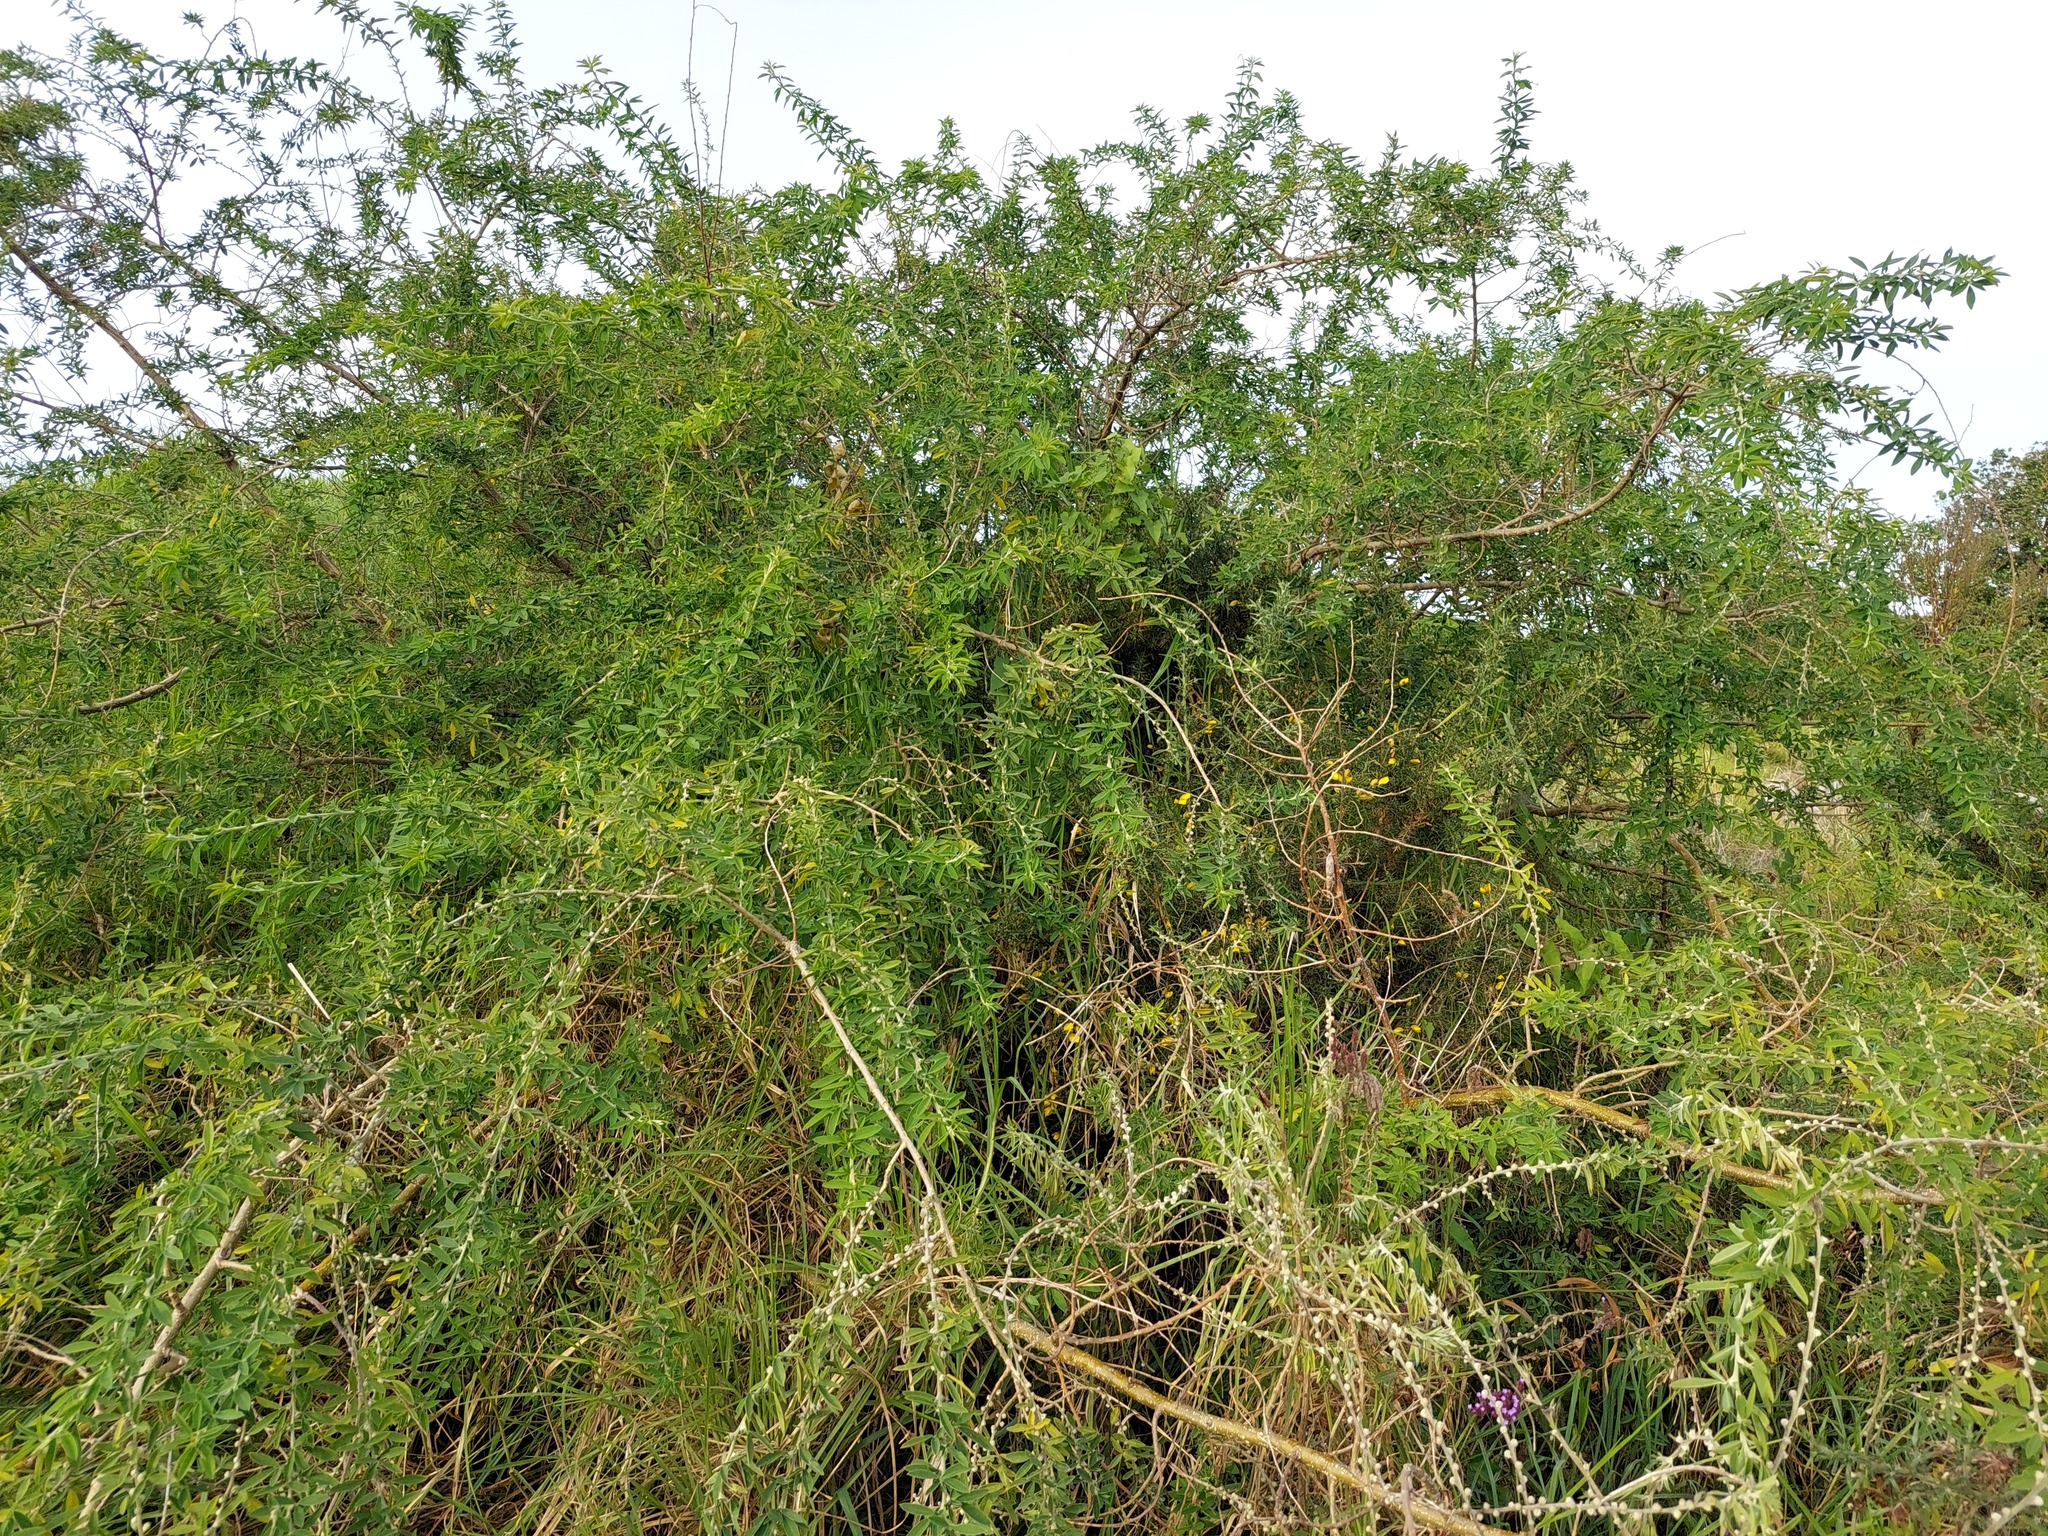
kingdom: Plantae
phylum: Tracheophyta
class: Magnoliopsida
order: Fabales
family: Fabaceae
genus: Chamaecytisus
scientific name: Chamaecytisus prolifer
